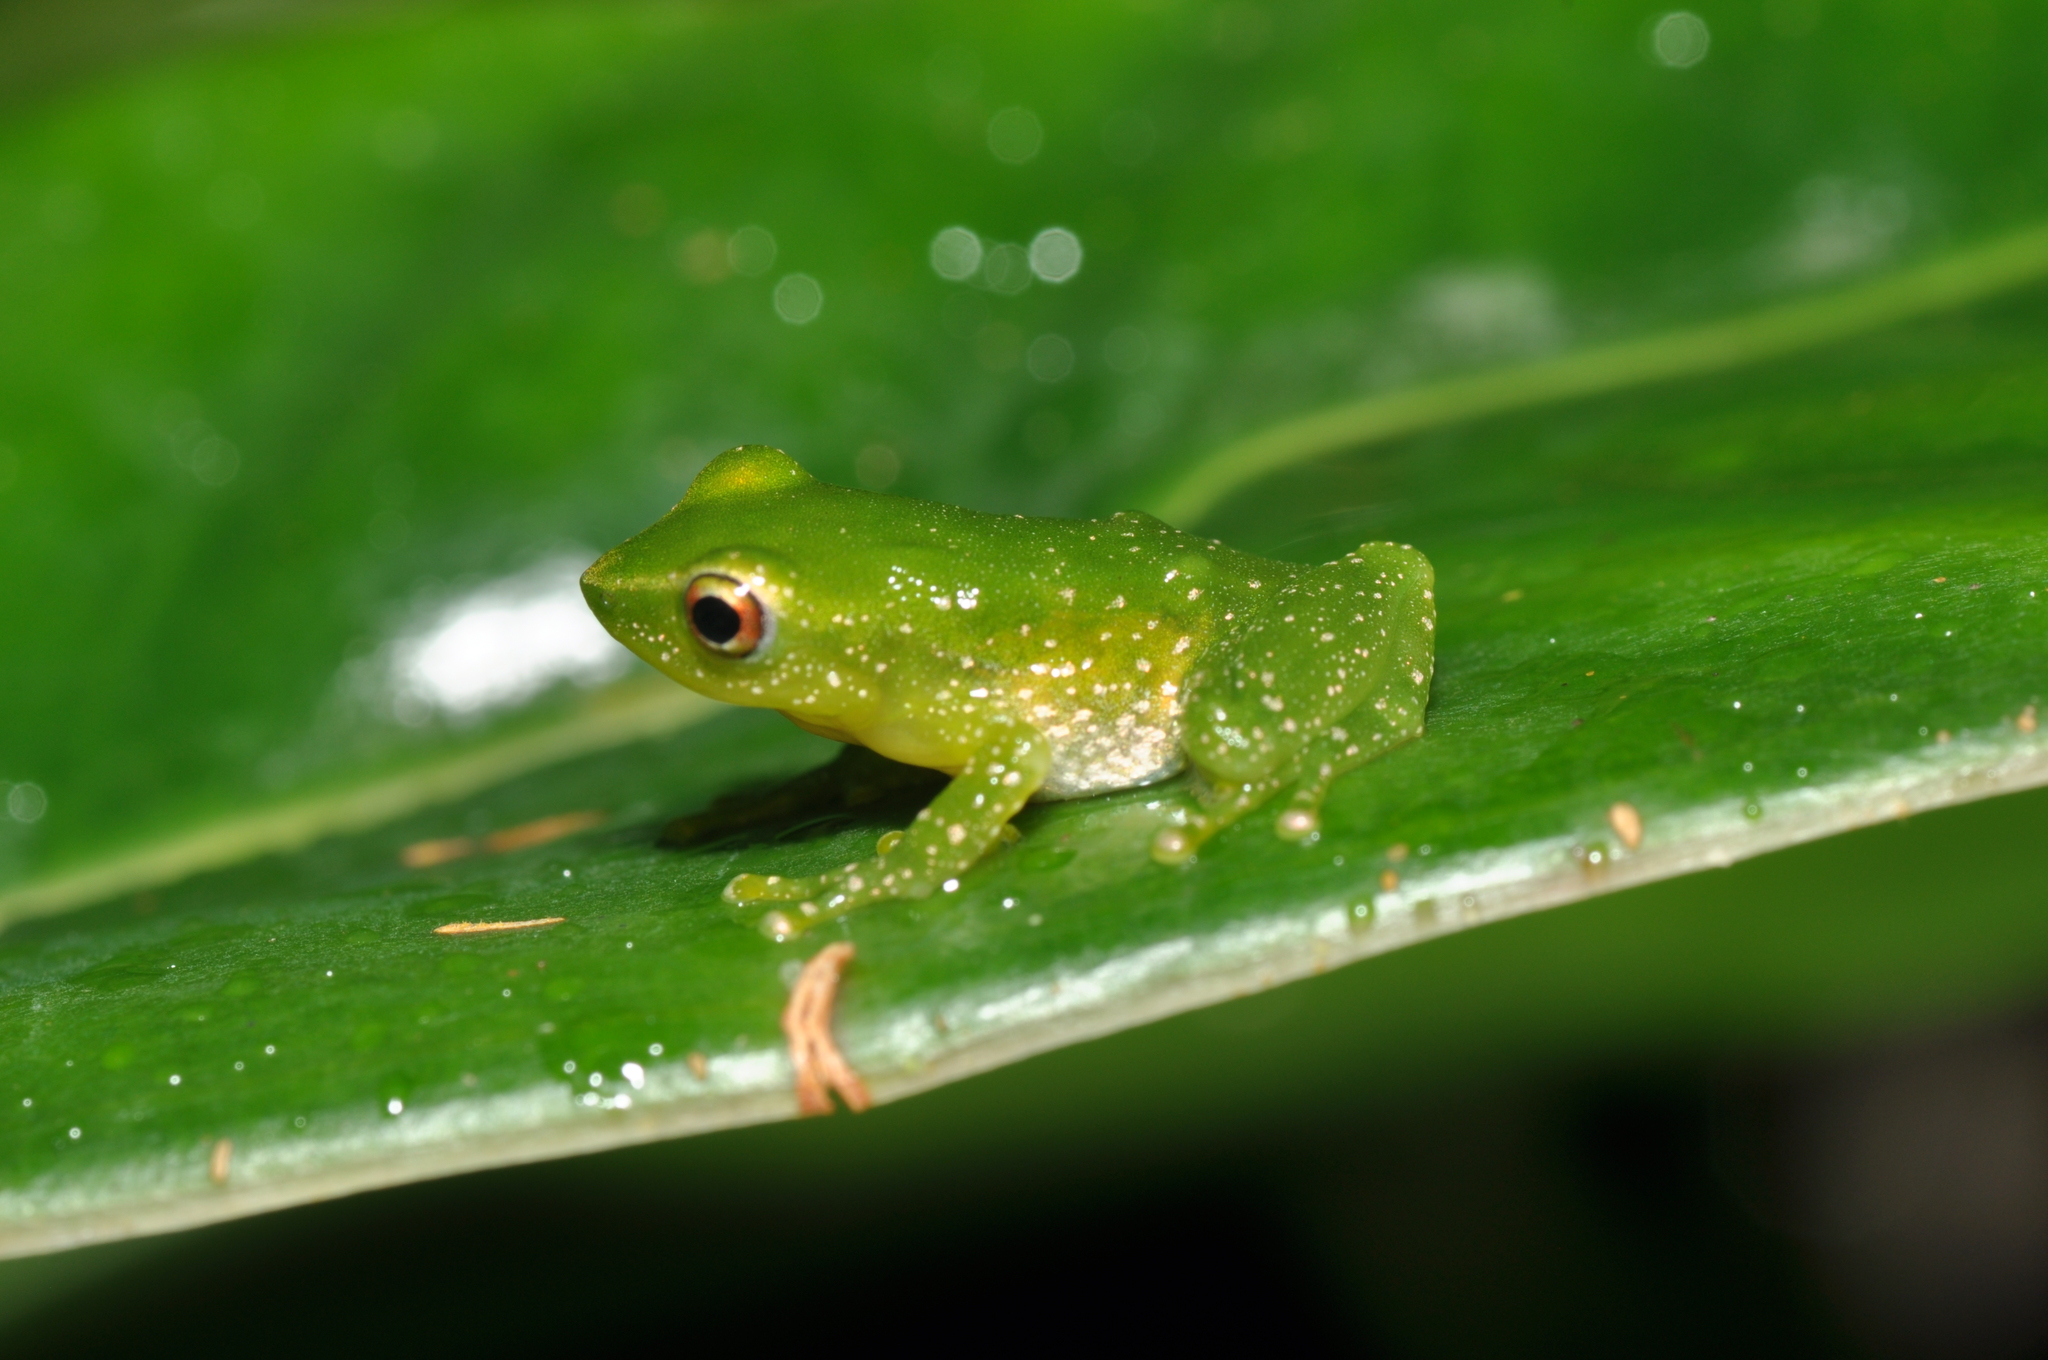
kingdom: Animalia
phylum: Chordata
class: Amphibia
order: Anura
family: Craugastoridae
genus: Pristimantis
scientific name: Pristimantis acuminatus
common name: Canelos robber frog
